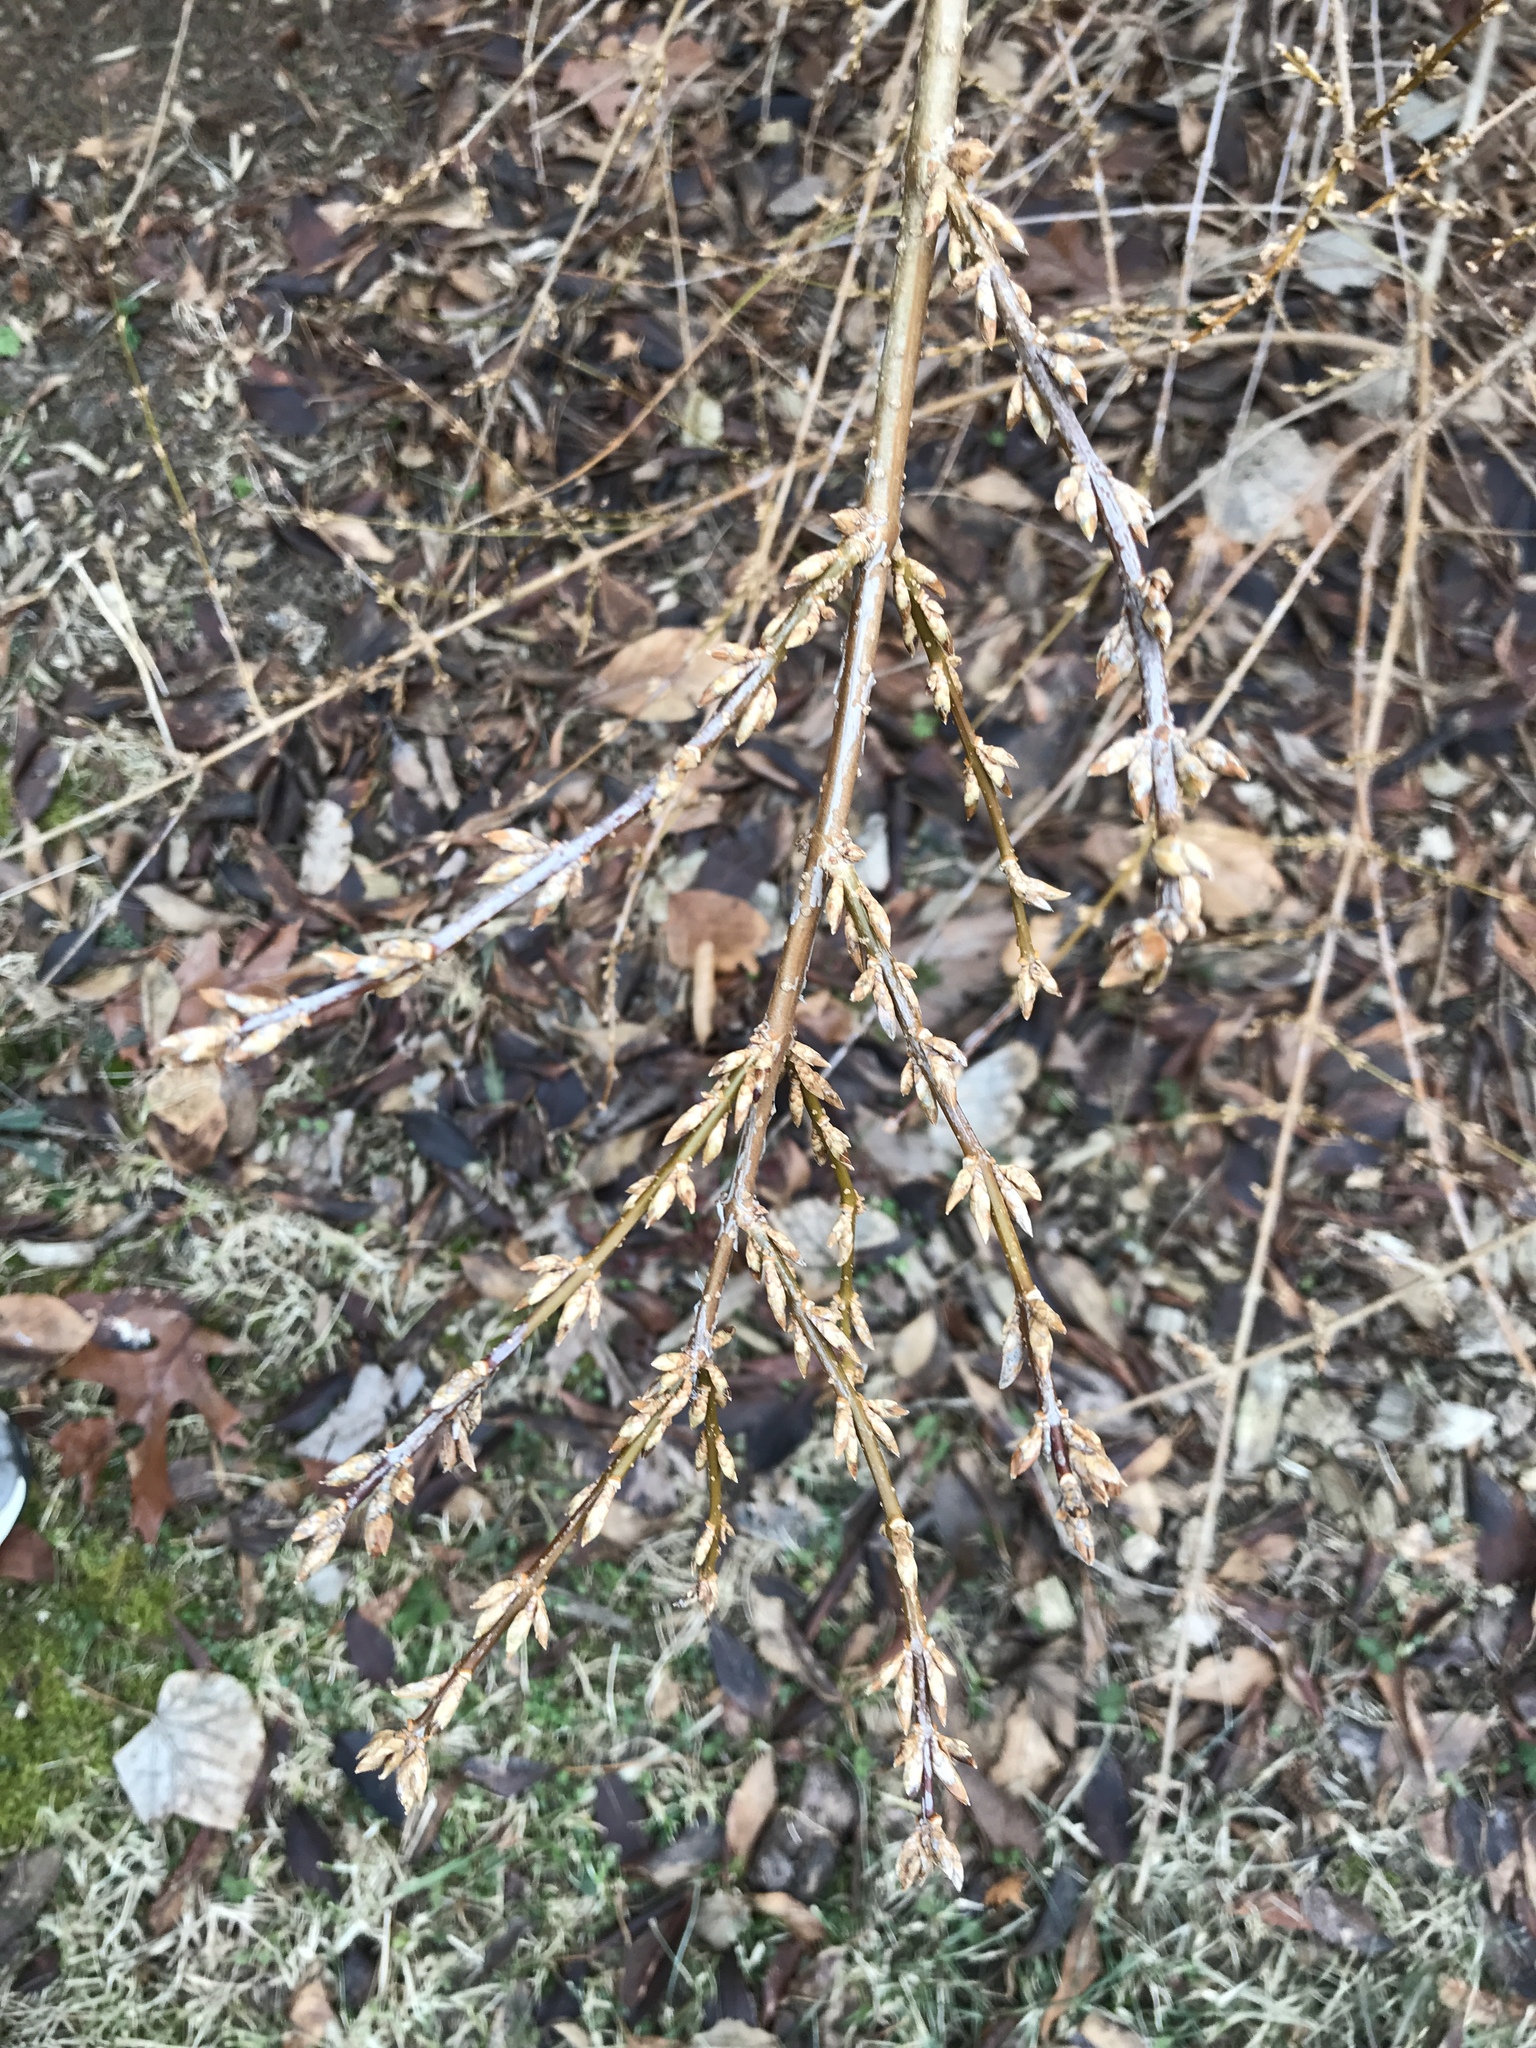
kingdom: Plantae
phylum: Tracheophyta
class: Magnoliopsida
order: Lamiales
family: Oleaceae
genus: Forsythia
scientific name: Forsythia
